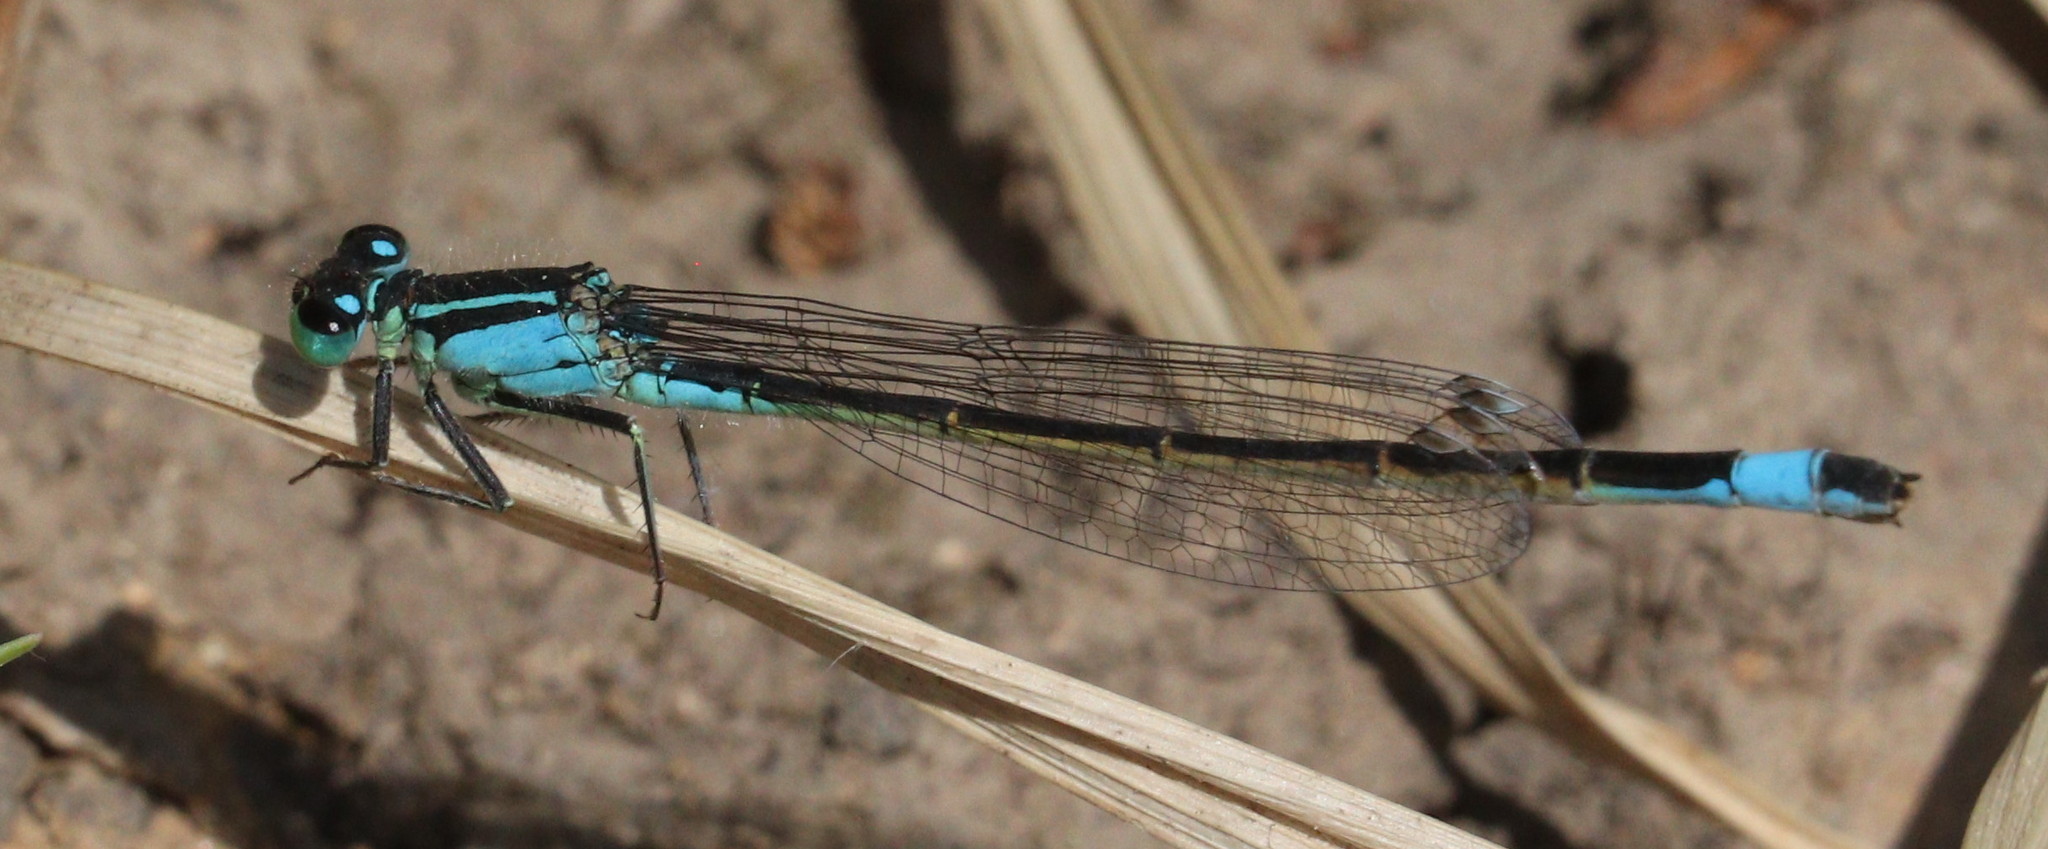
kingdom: Animalia
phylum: Arthropoda
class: Insecta
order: Odonata
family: Coenagrionidae
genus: Ischnura
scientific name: Ischnura elegans
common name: Blue-tailed damselfly
